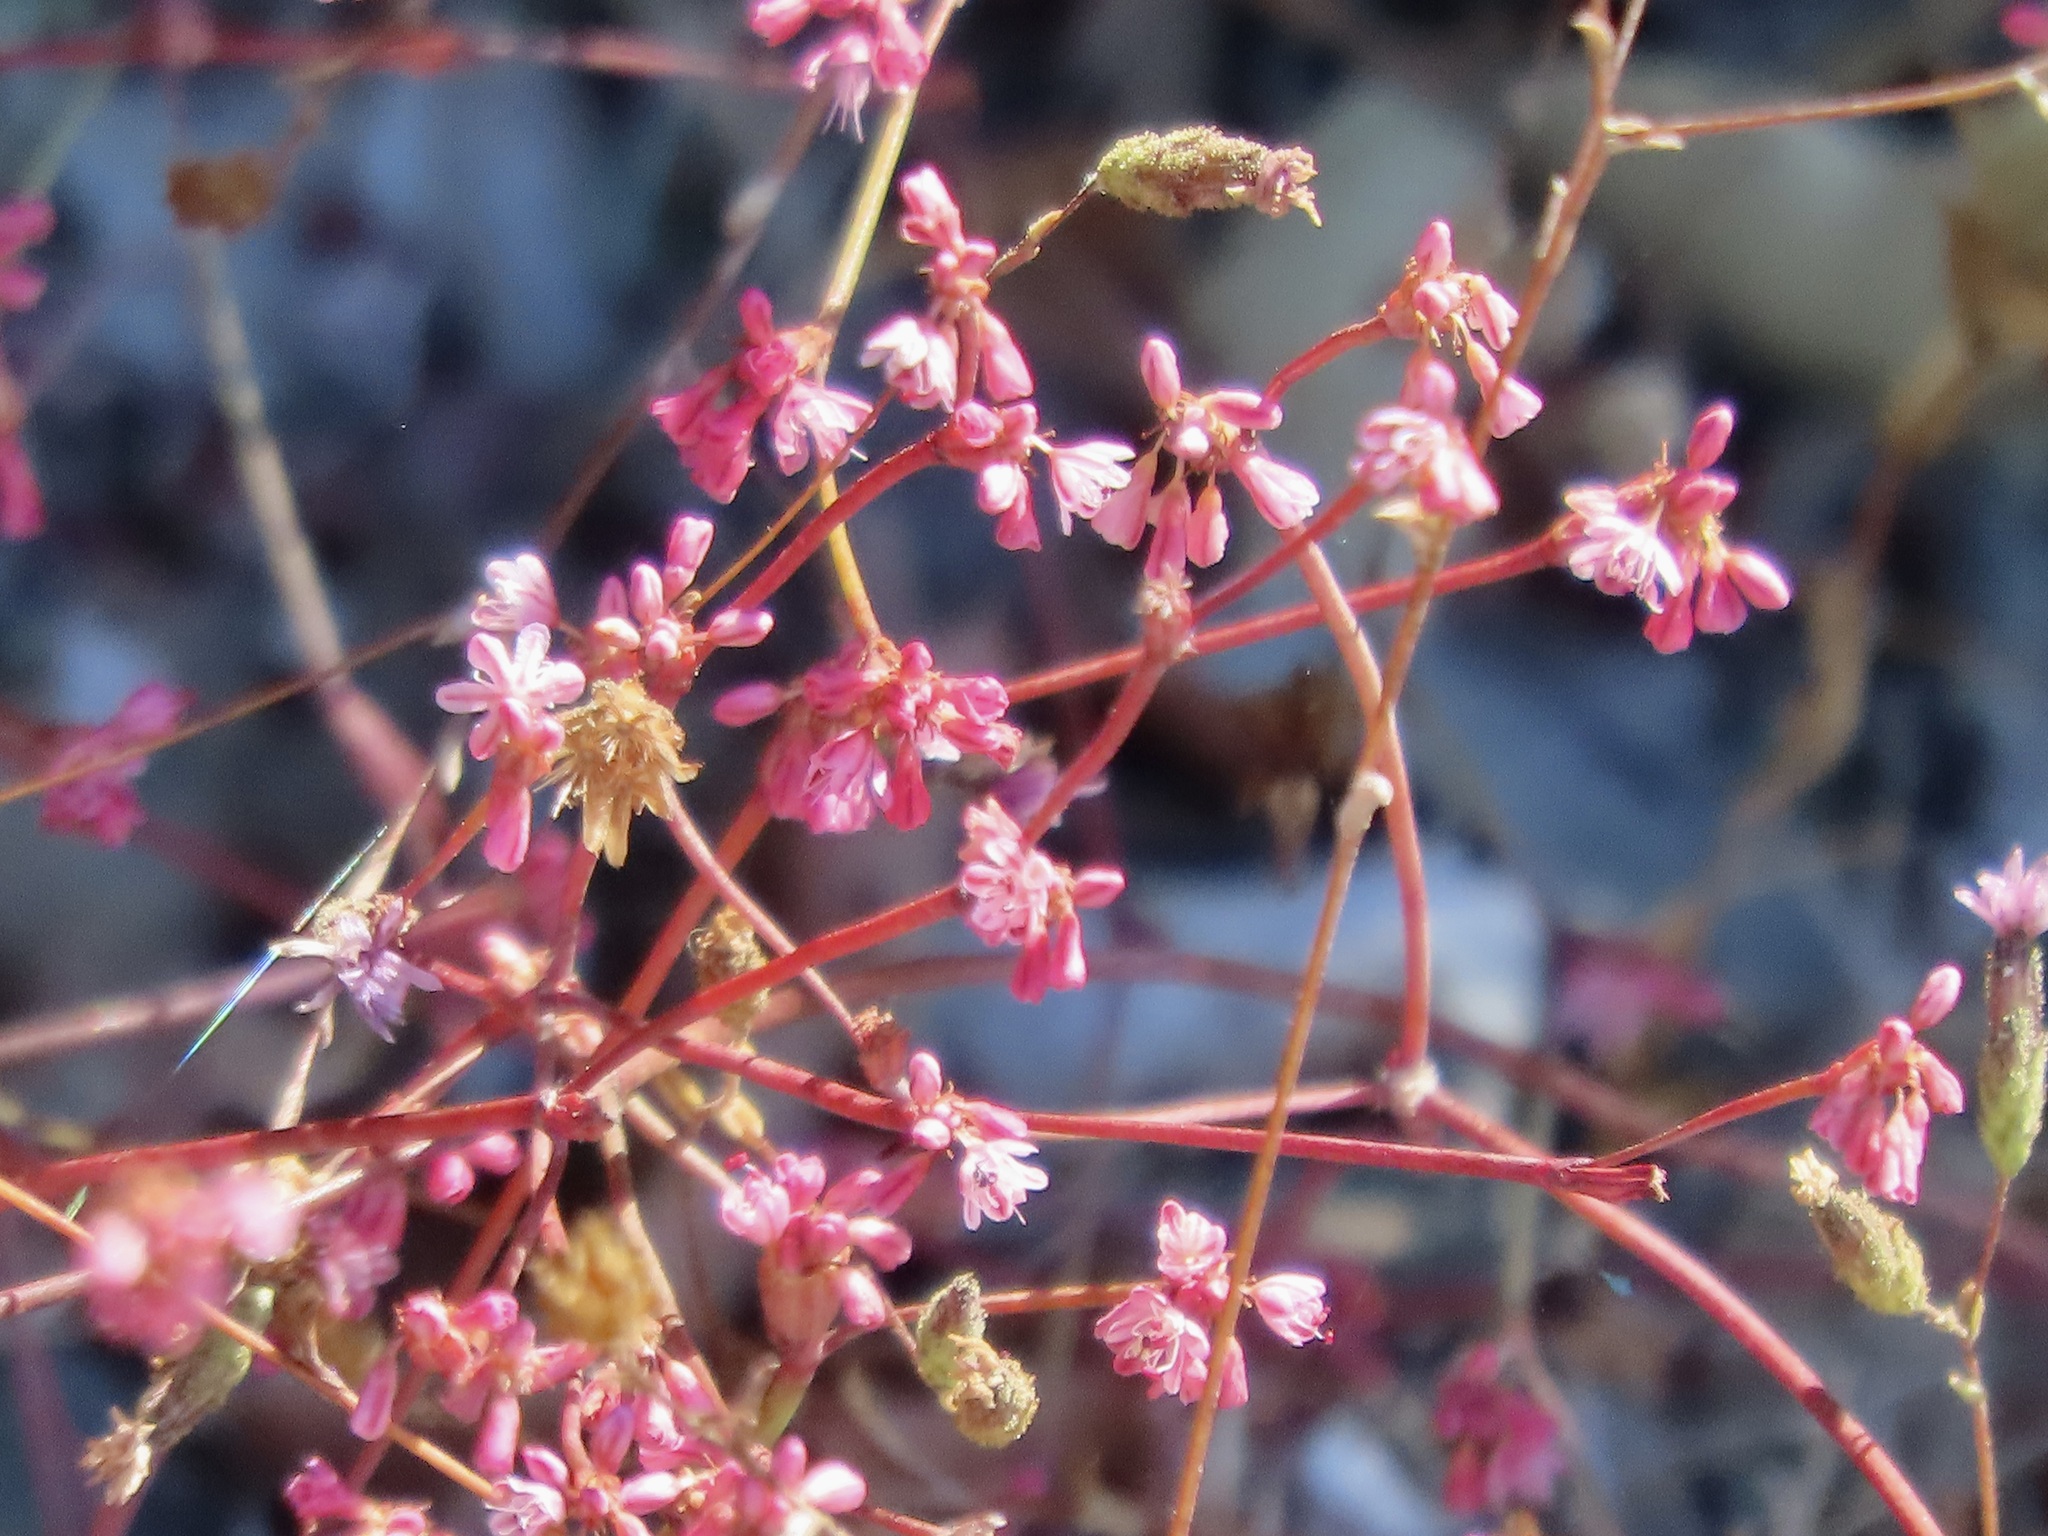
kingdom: Plantae
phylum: Tracheophyta
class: Magnoliopsida
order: Caryophyllales
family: Polygonaceae
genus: Eriogonum
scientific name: Eriogonum luteolum
